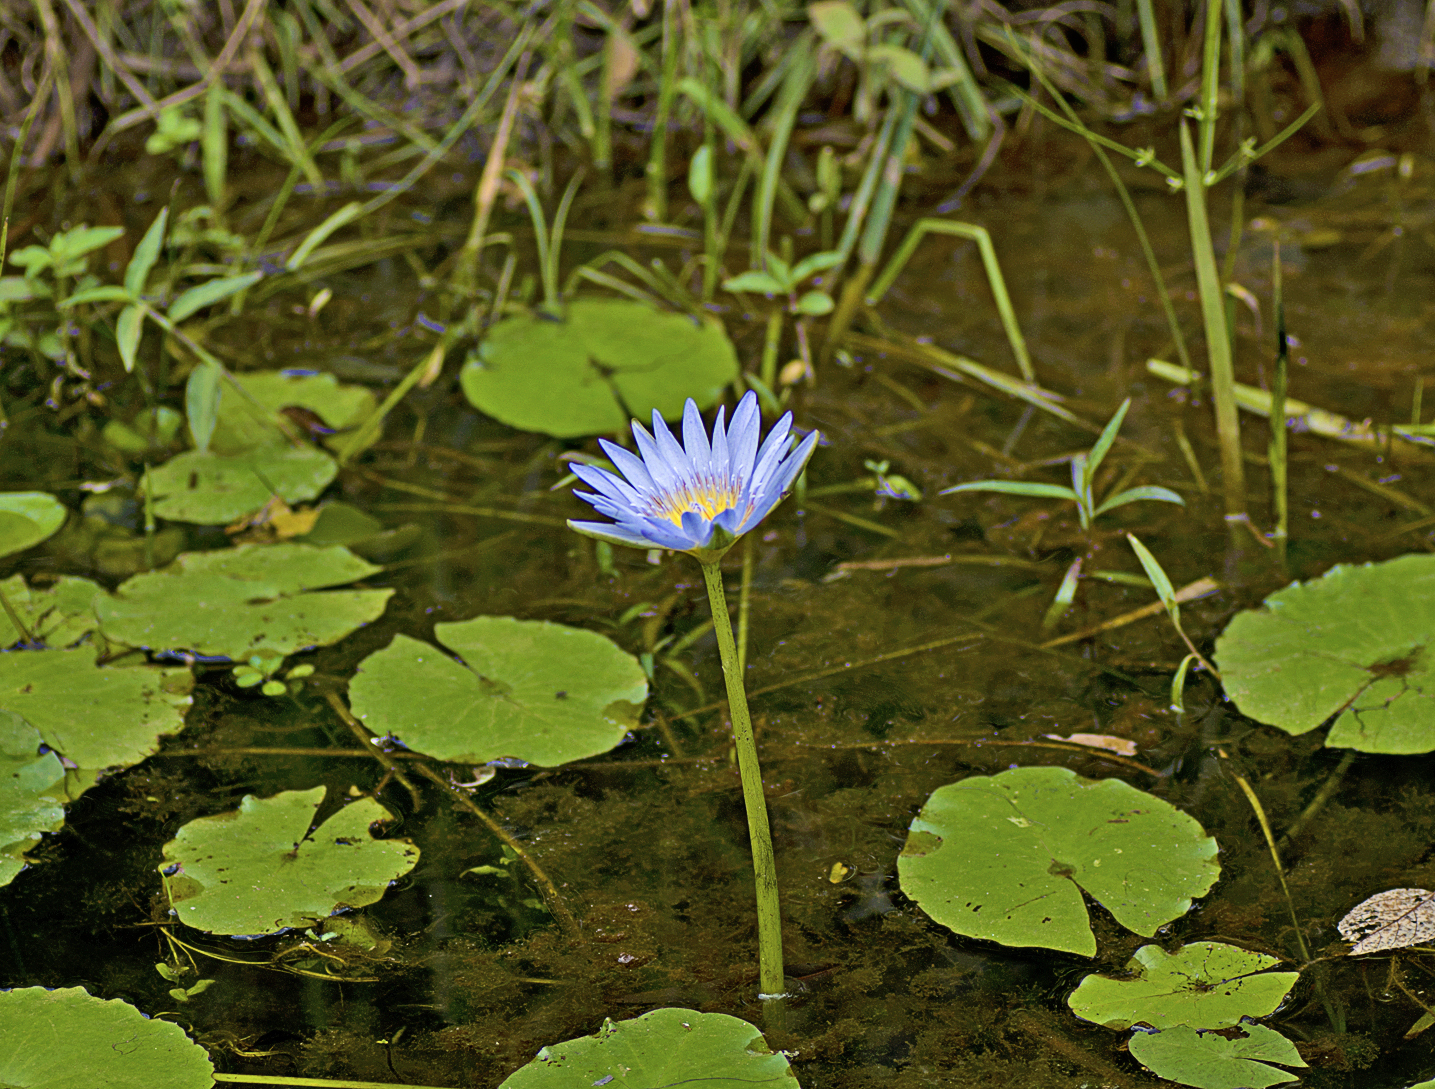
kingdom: Plantae
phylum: Tracheophyta
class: Magnoliopsida
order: Nymphaeales
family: Nymphaeaceae
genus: Nymphaea
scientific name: Nymphaea nouchali
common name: Blue lotus
